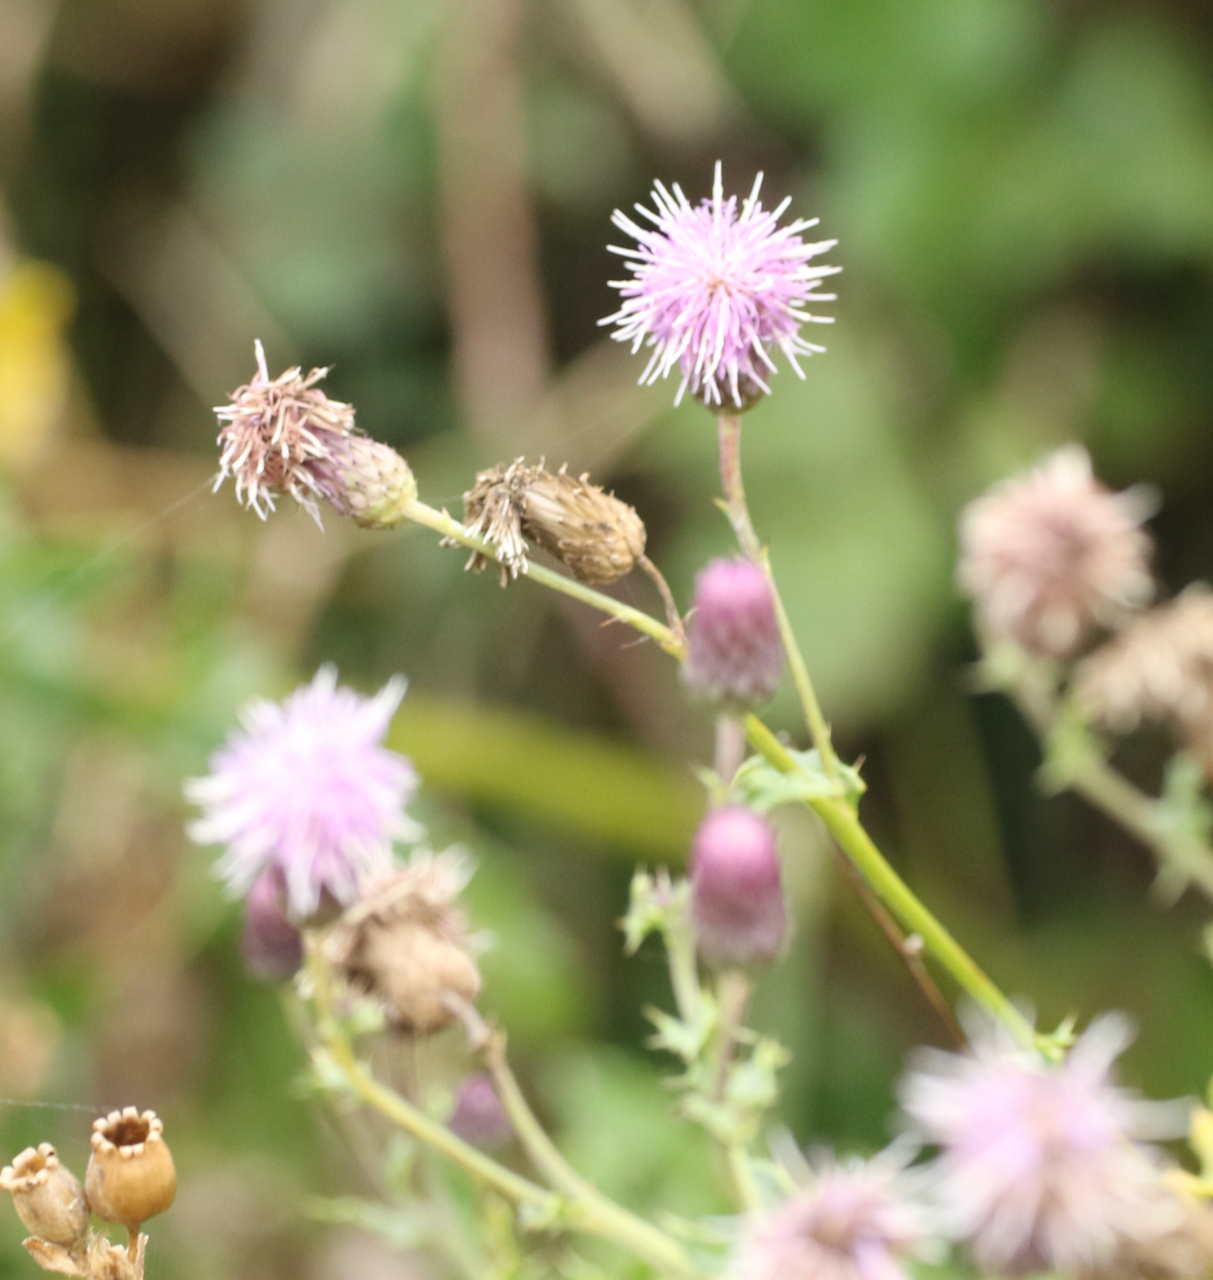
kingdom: Plantae
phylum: Tracheophyta
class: Magnoliopsida
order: Asterales
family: Asteraceae
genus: Cirsium
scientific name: Cirsium arvense
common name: Creeping thistle
